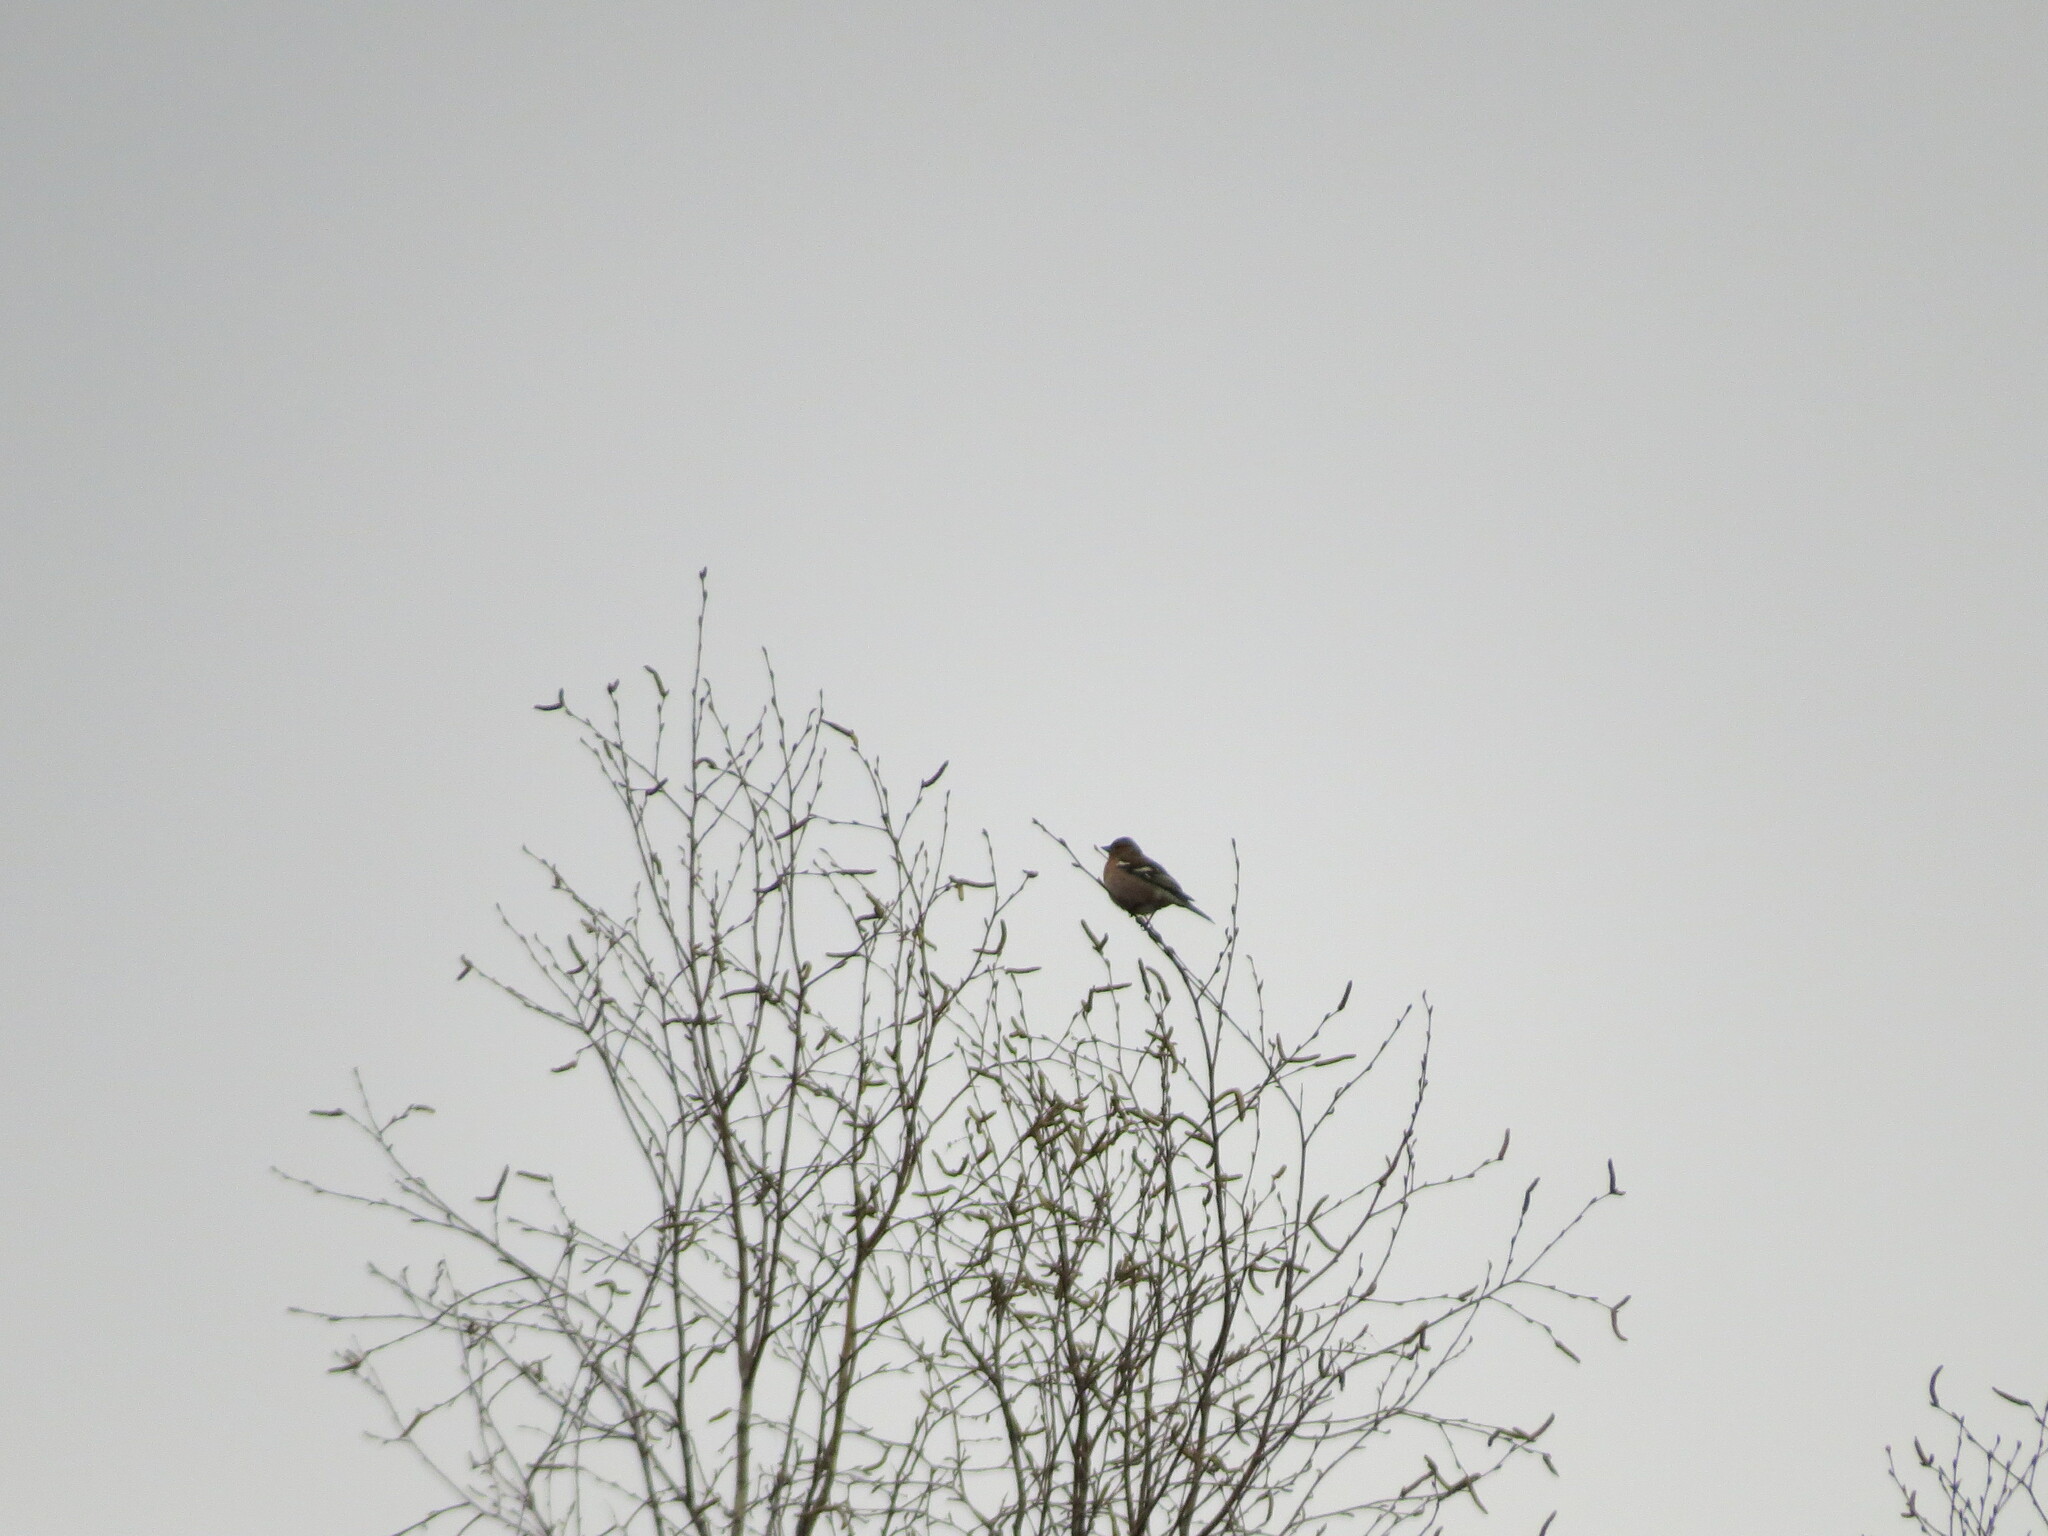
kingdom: Animalia
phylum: Chordata
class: Aves
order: Passeriformes
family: Fringillidae
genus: Fringilla
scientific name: Fringilla coelebs
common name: Common chaffinch
